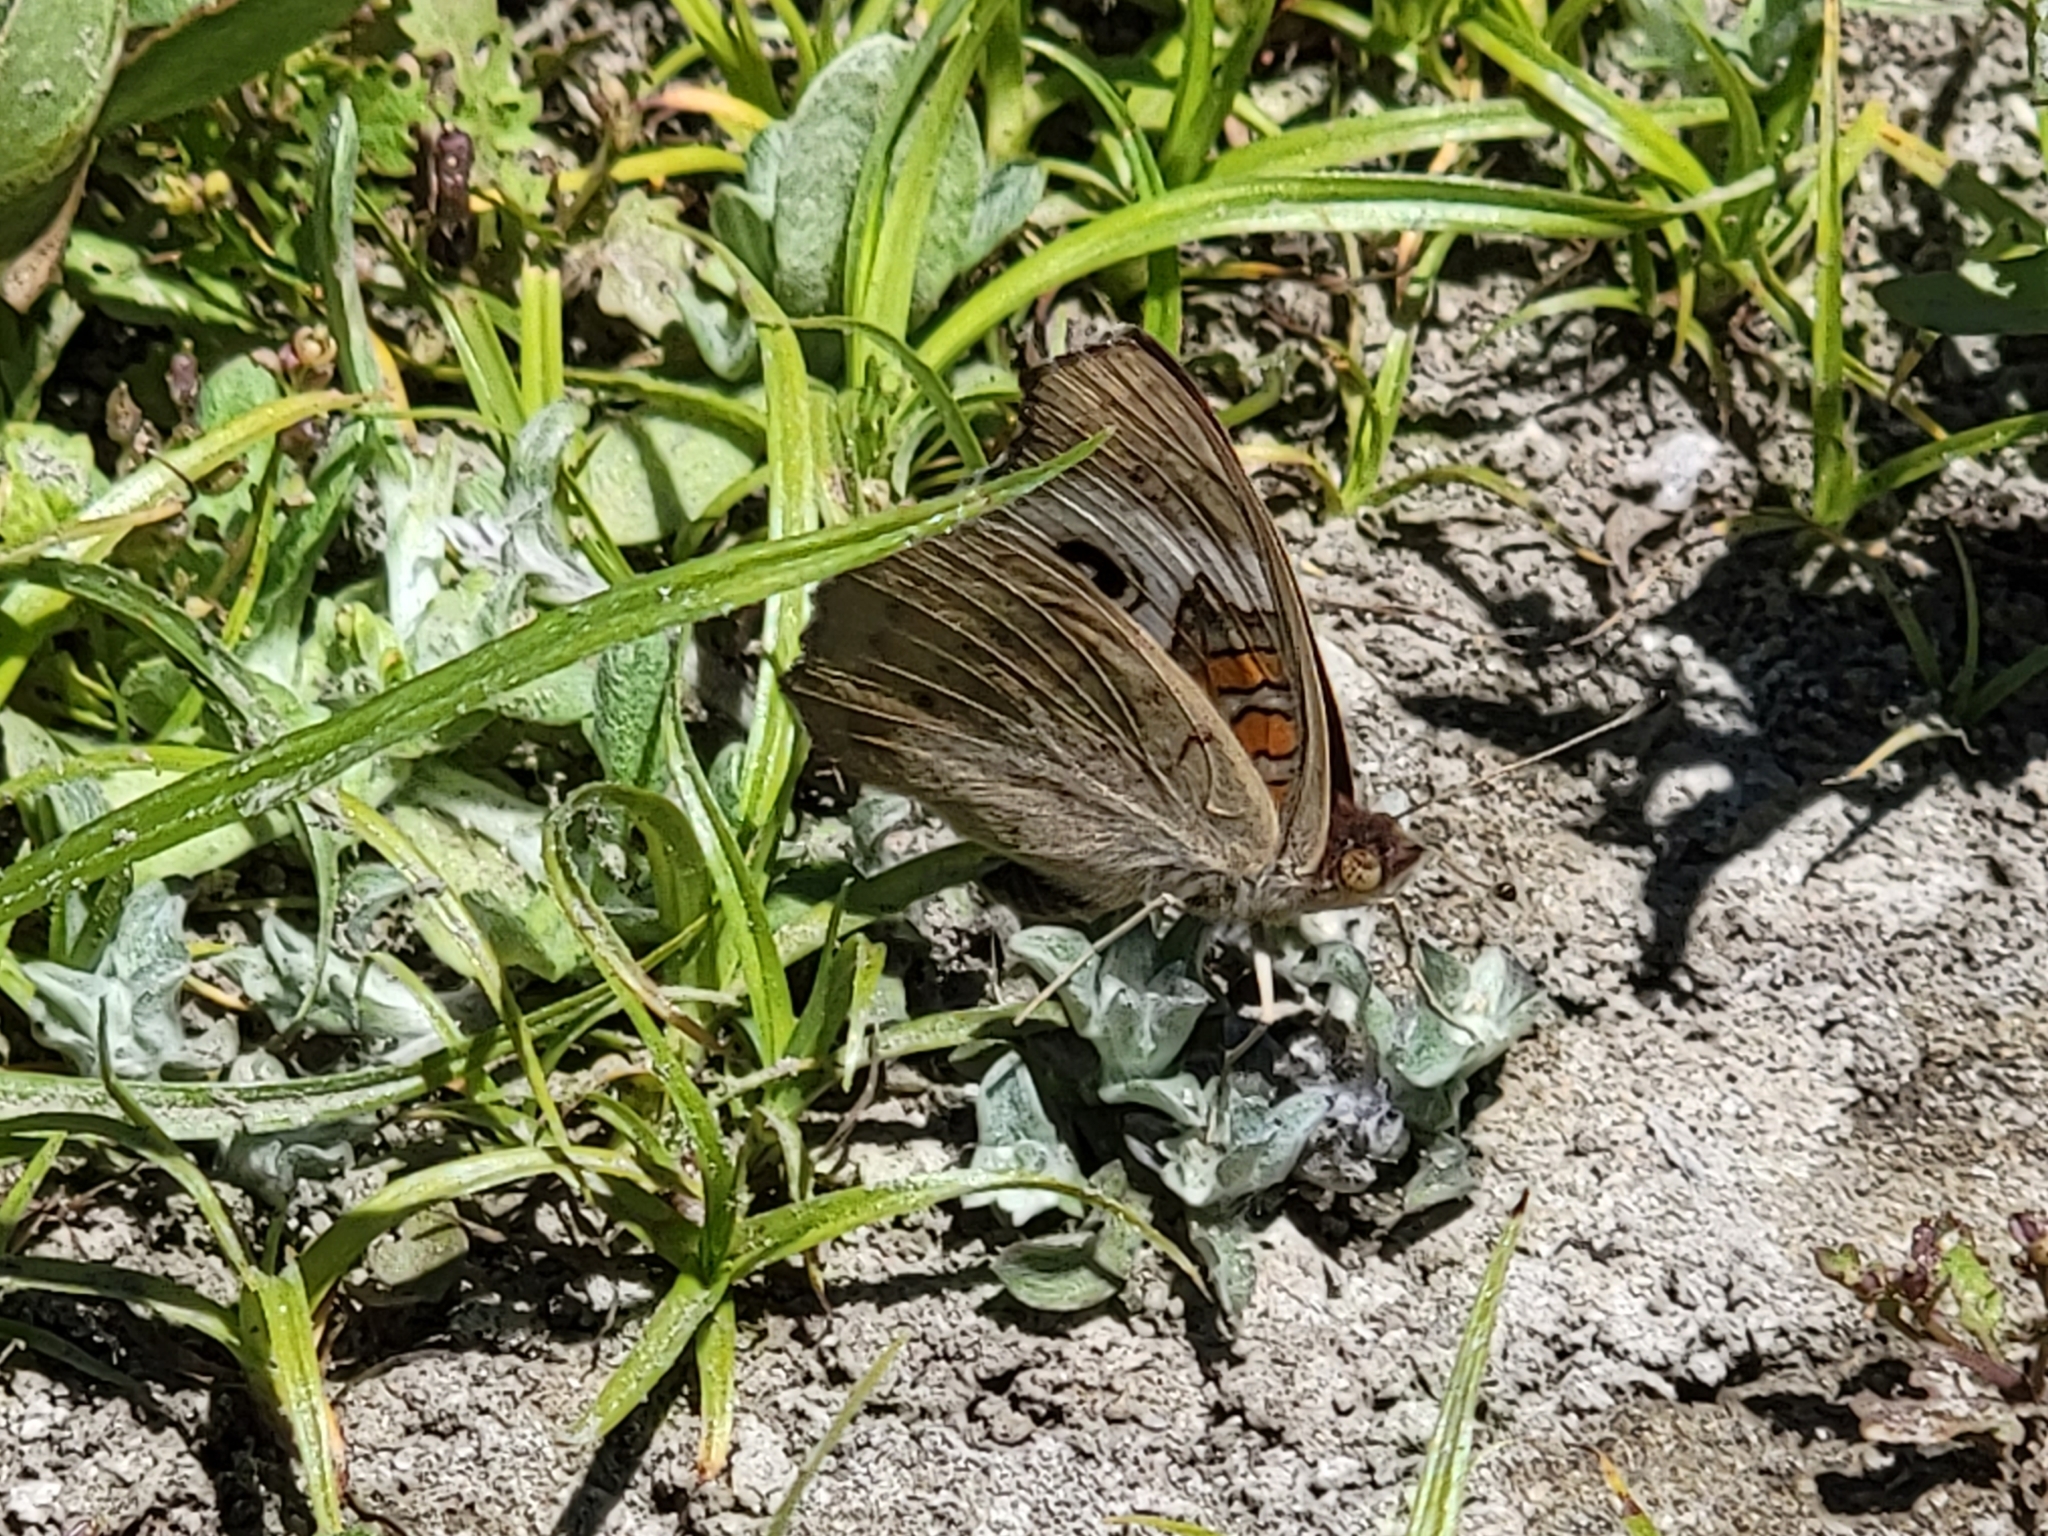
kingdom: Animalia
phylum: Arthropoda
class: Insecta
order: Lepidoptera
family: Nymphalidae
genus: Junonia
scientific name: Junonia grisea
